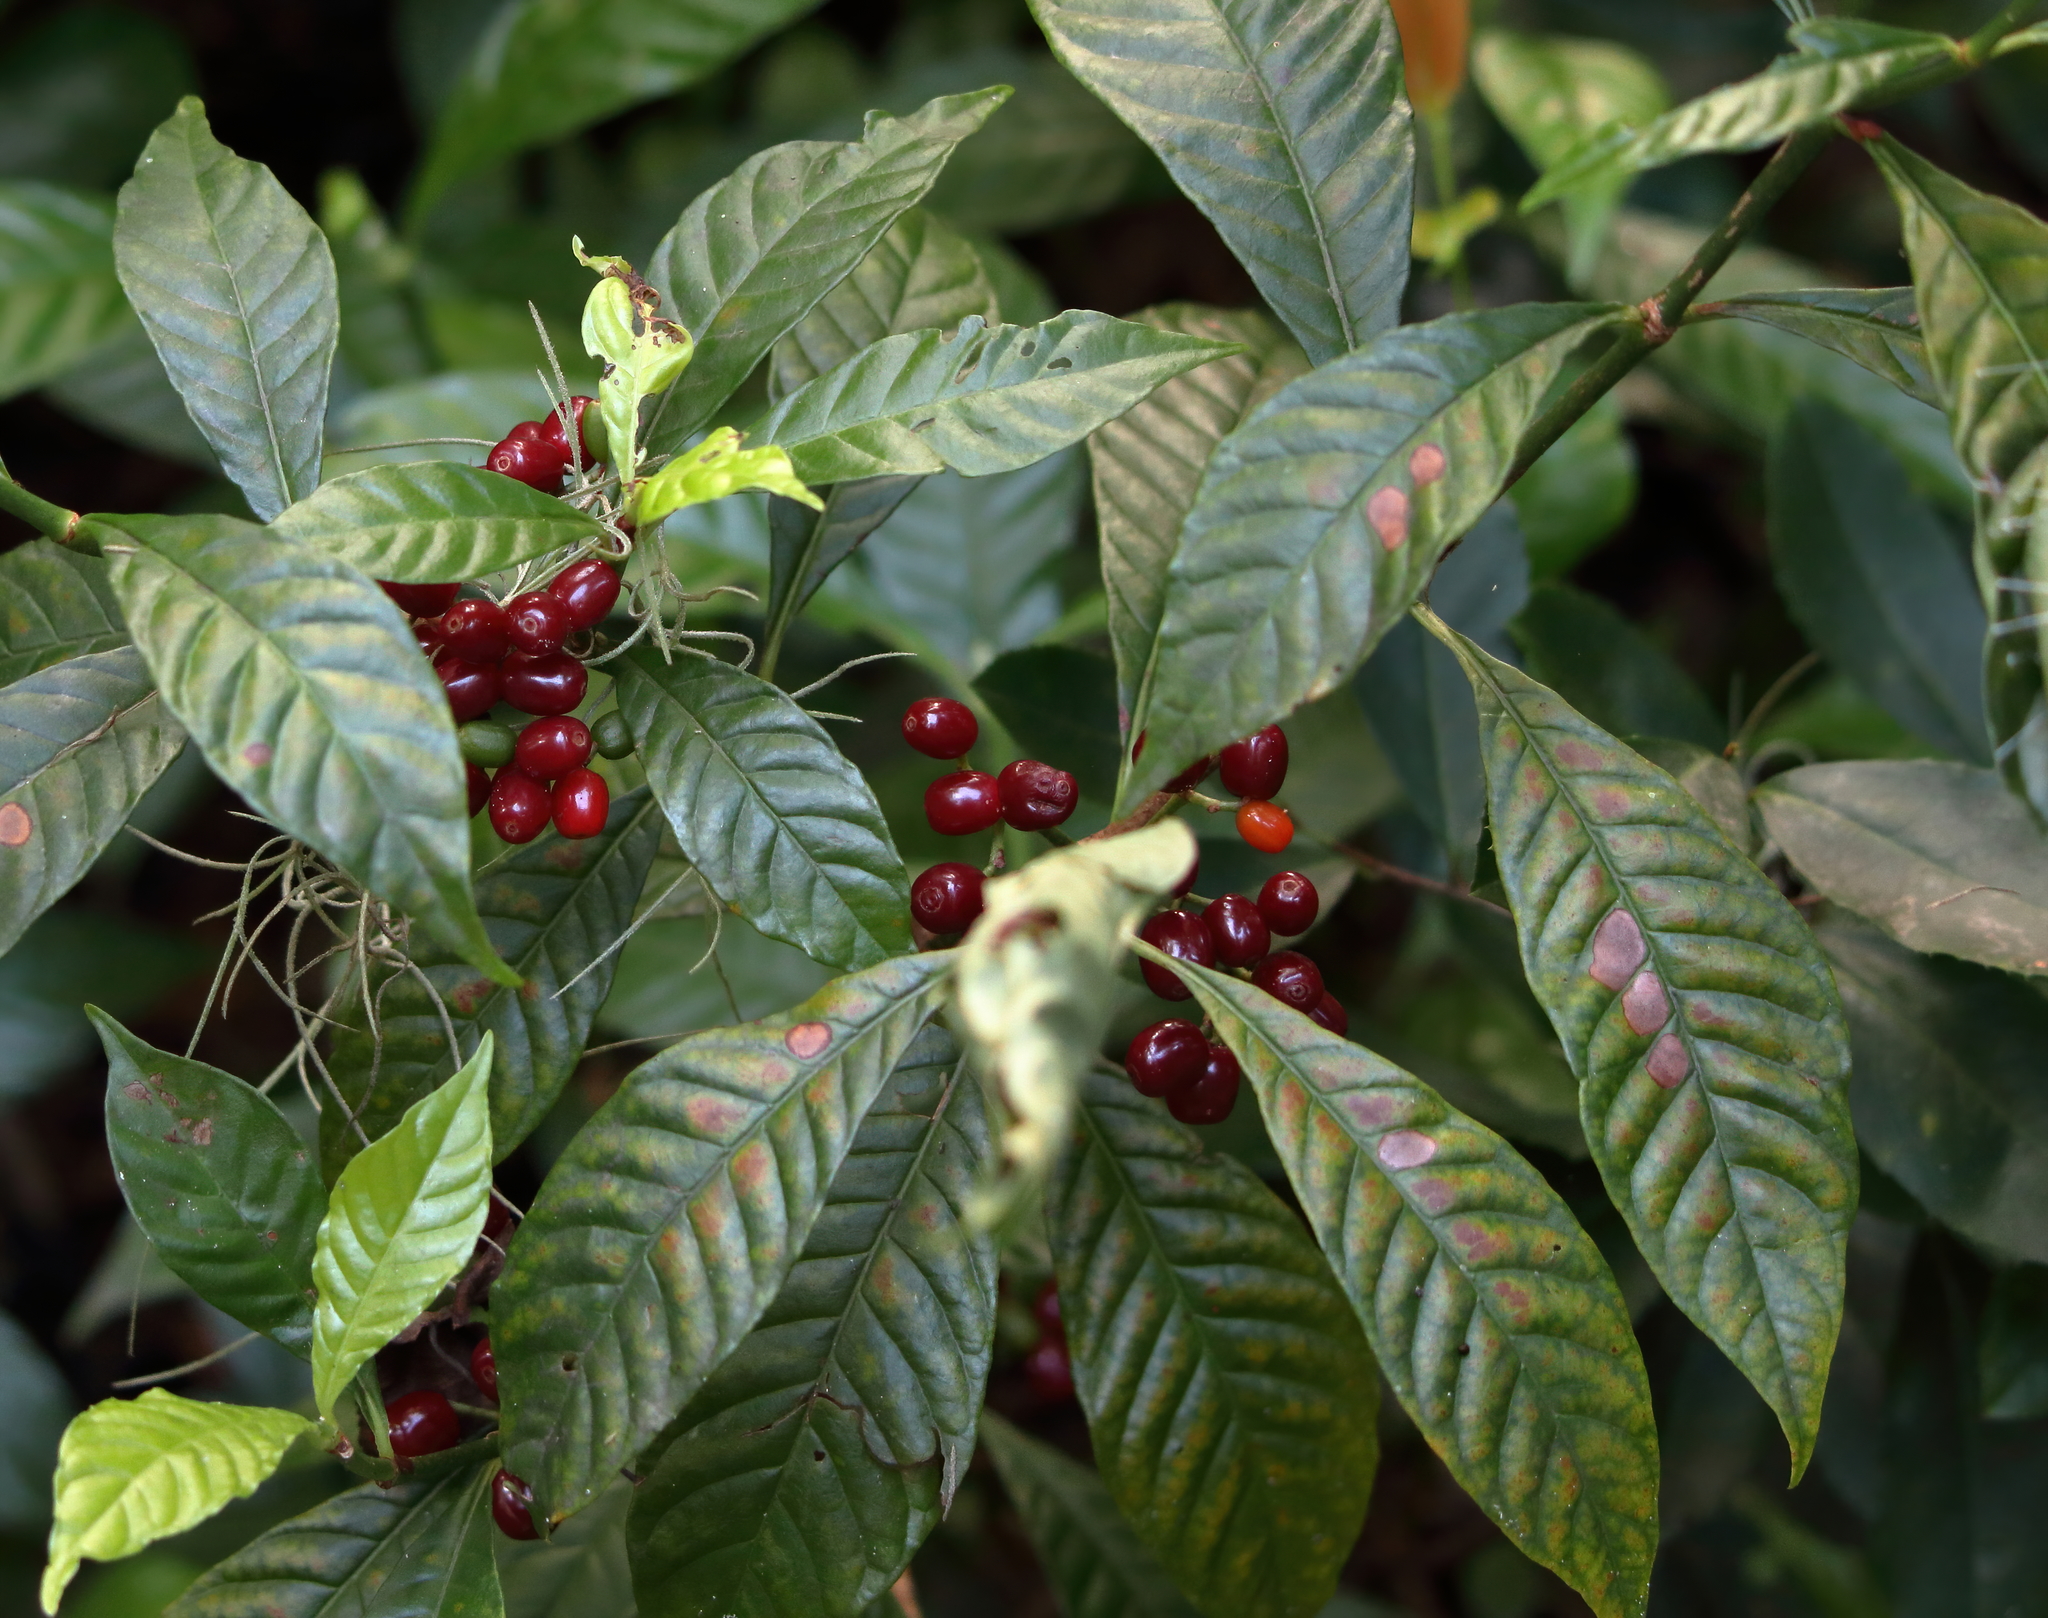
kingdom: Plantae
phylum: Tracheophyta
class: Magnoliopsida
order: Gentianales
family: Rubiaceae
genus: Psychotria
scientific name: Psychotria nervosa
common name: Bastard cankerberry
